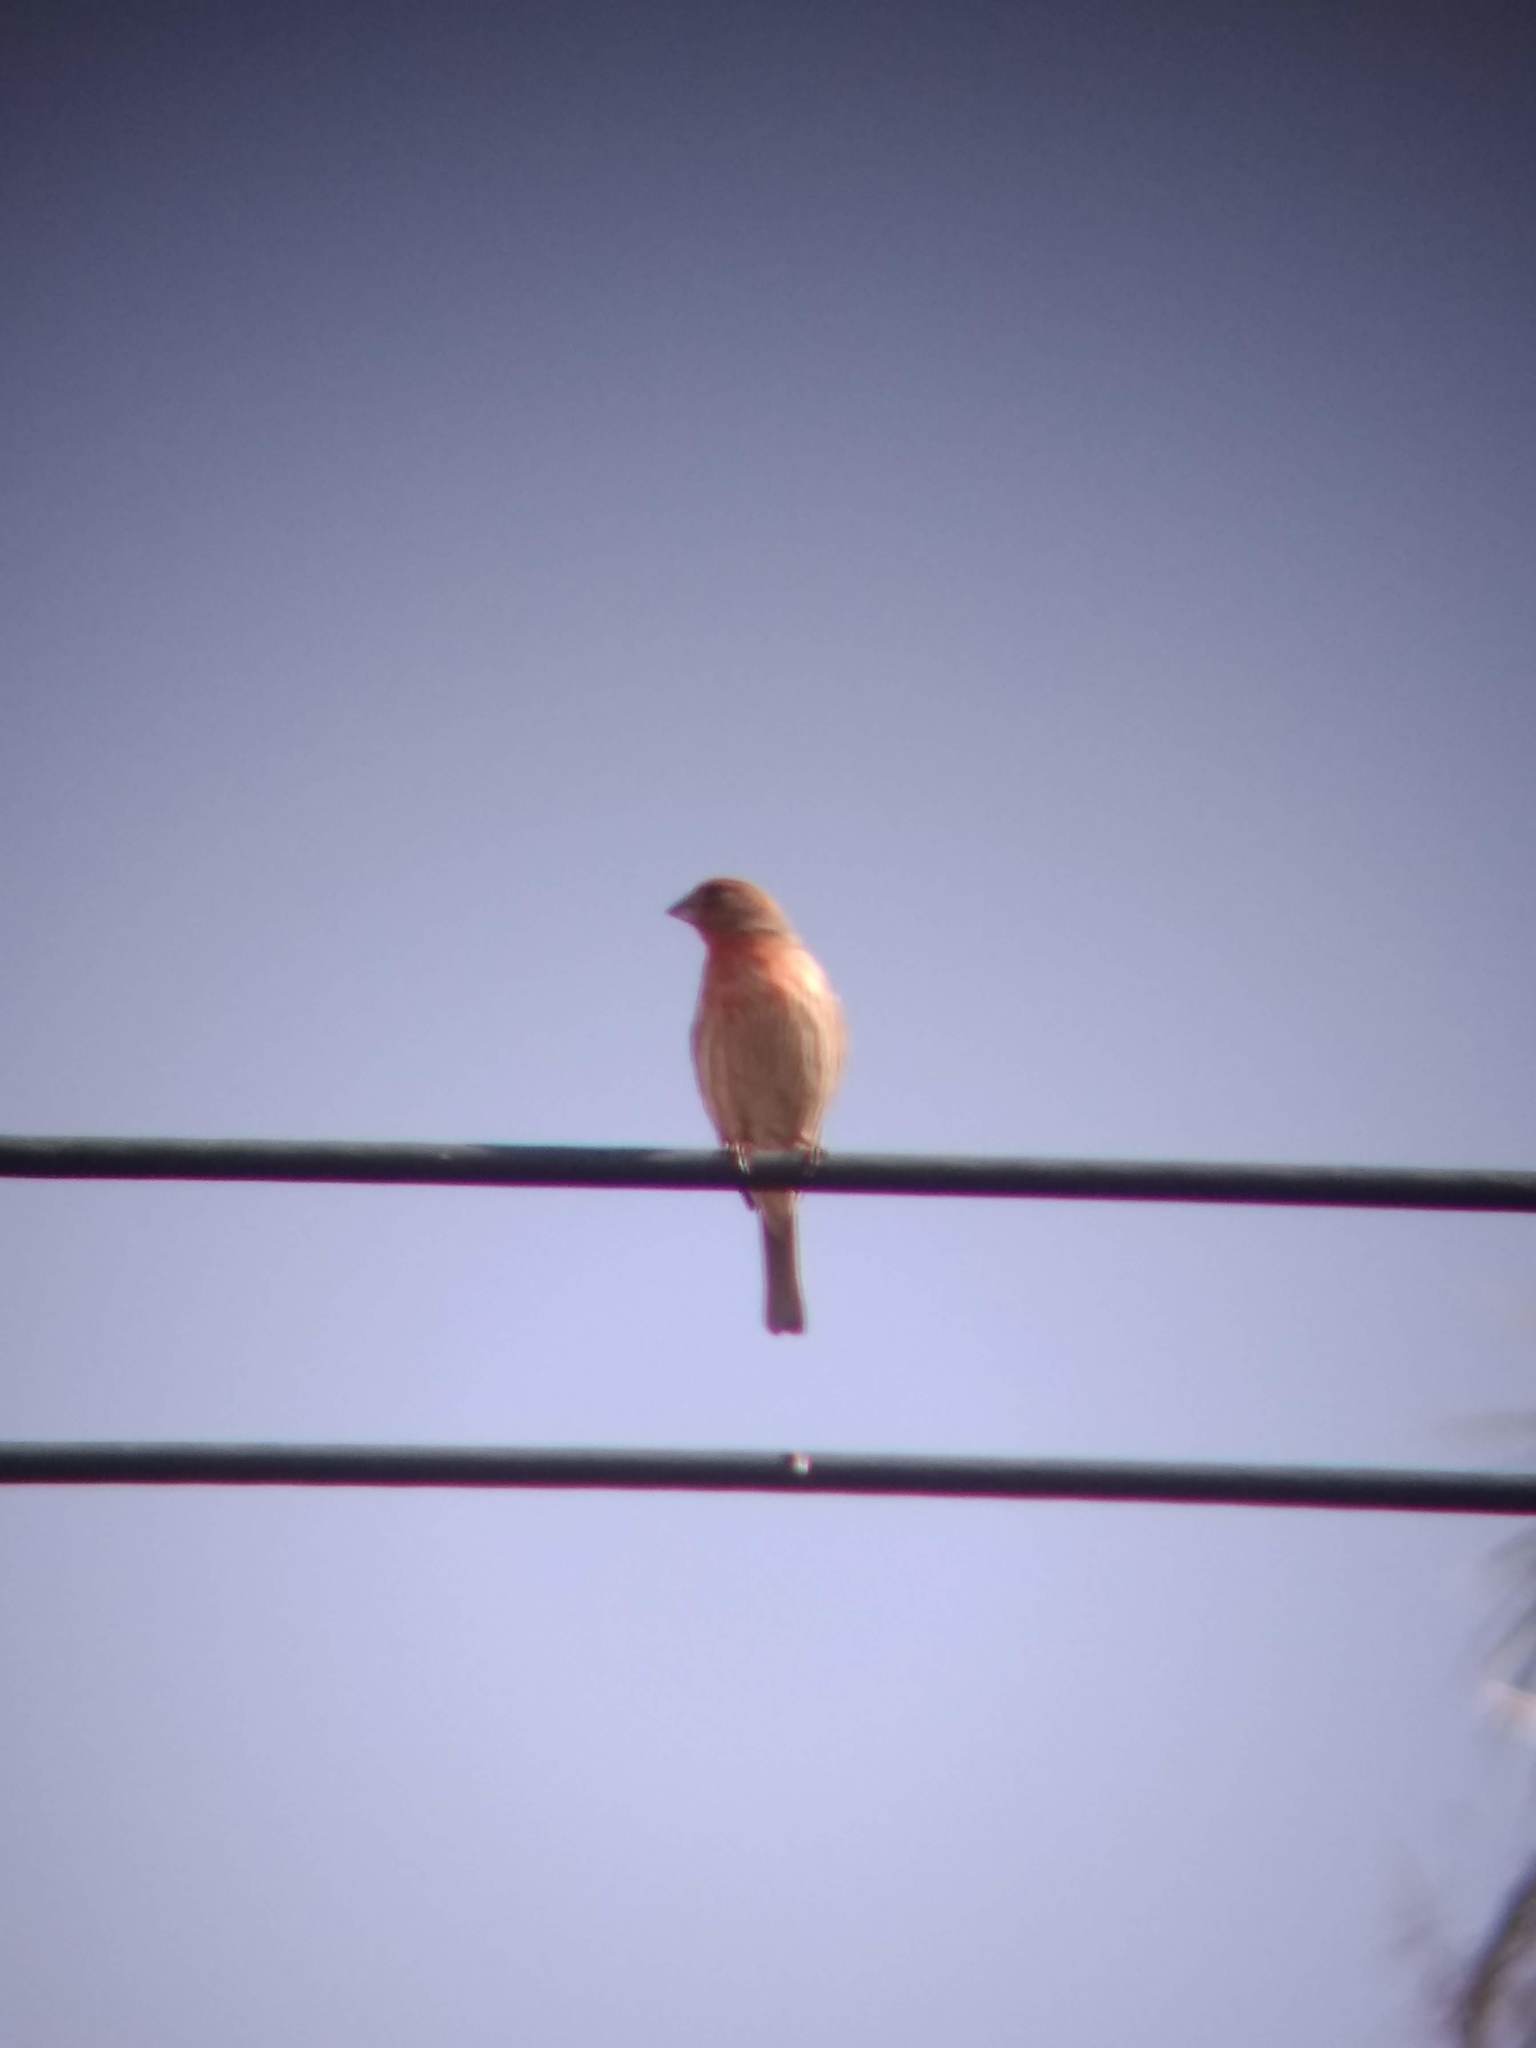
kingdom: Animalia
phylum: Chordata
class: Aves
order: Passeriformes
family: Fringillidae
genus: Haemorhous
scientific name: Haemorhous mexicanus
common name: House finch
